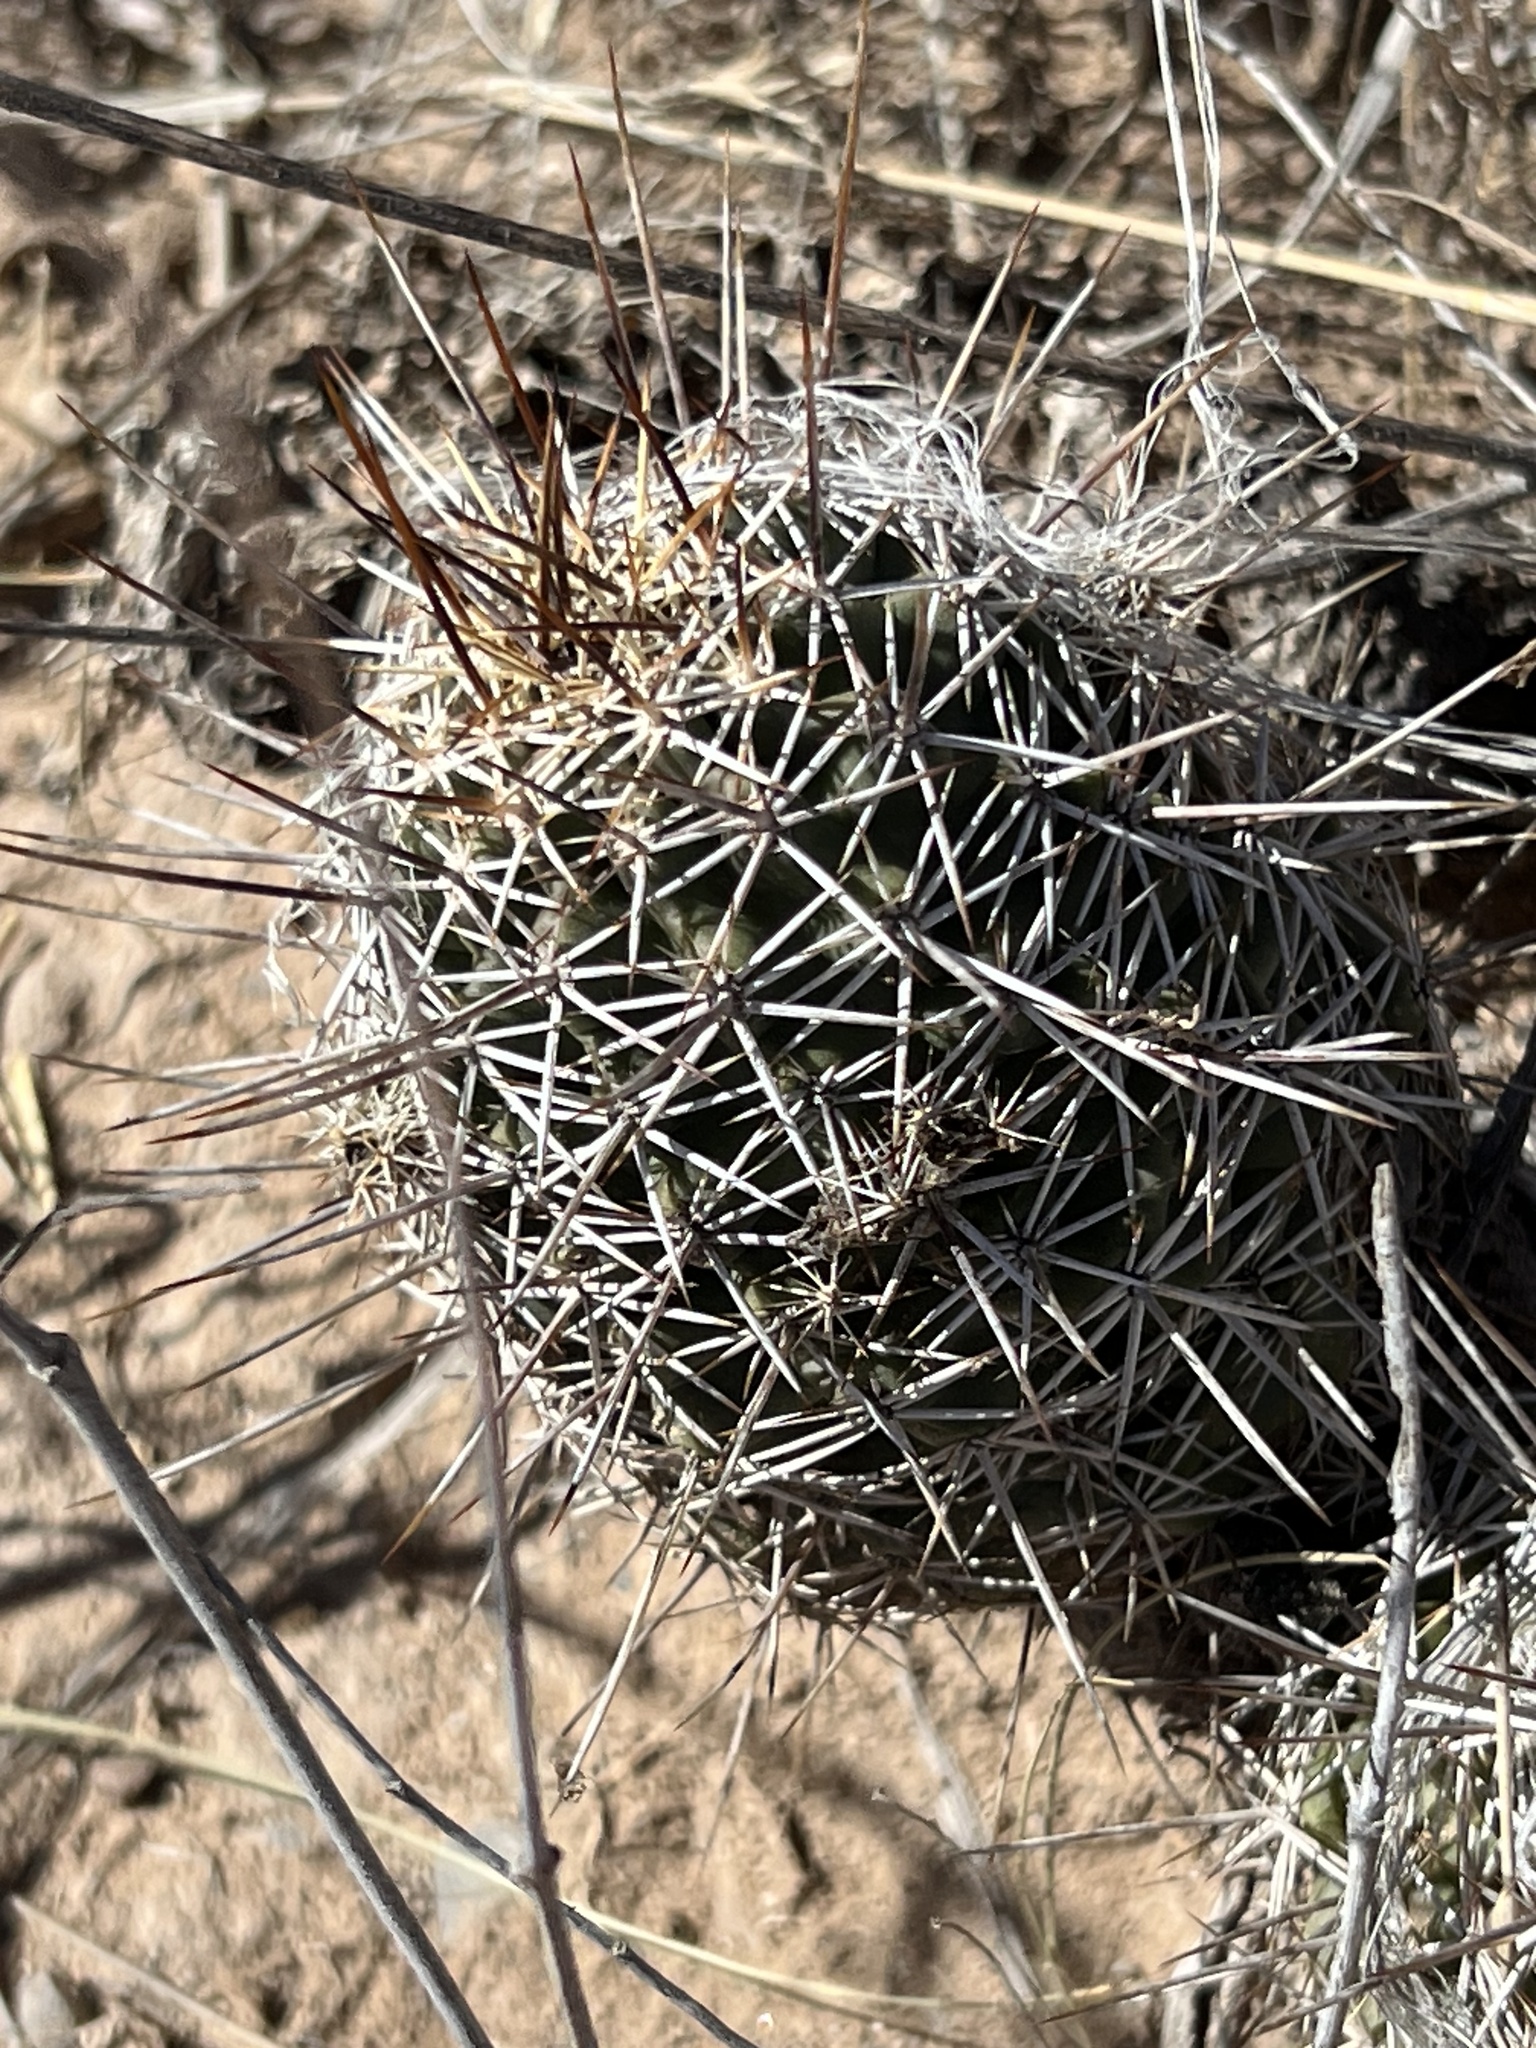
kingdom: Plantae
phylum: Tracheophyta
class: Magnoliopsida
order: Caryophyllales
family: Cactaceae
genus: Echinocereus
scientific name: Echinocereus fendleri
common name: Fendler's hedgehog cactus
